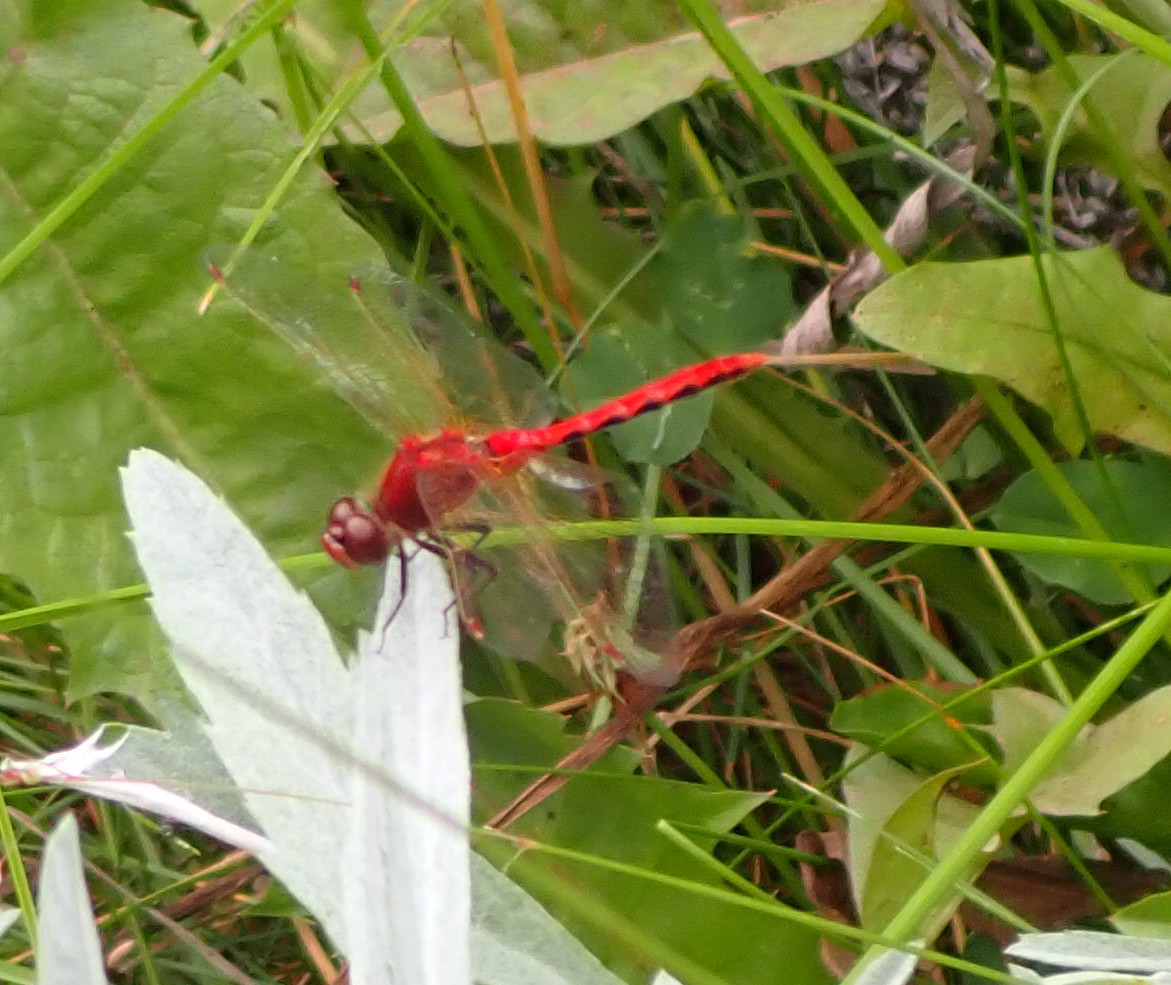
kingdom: Animalia
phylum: Arthropoda
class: Insecta
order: Odonata
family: Libellulidae
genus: Sympetrum
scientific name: Sympetrum internum
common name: Cherry-faced meadowhawk
